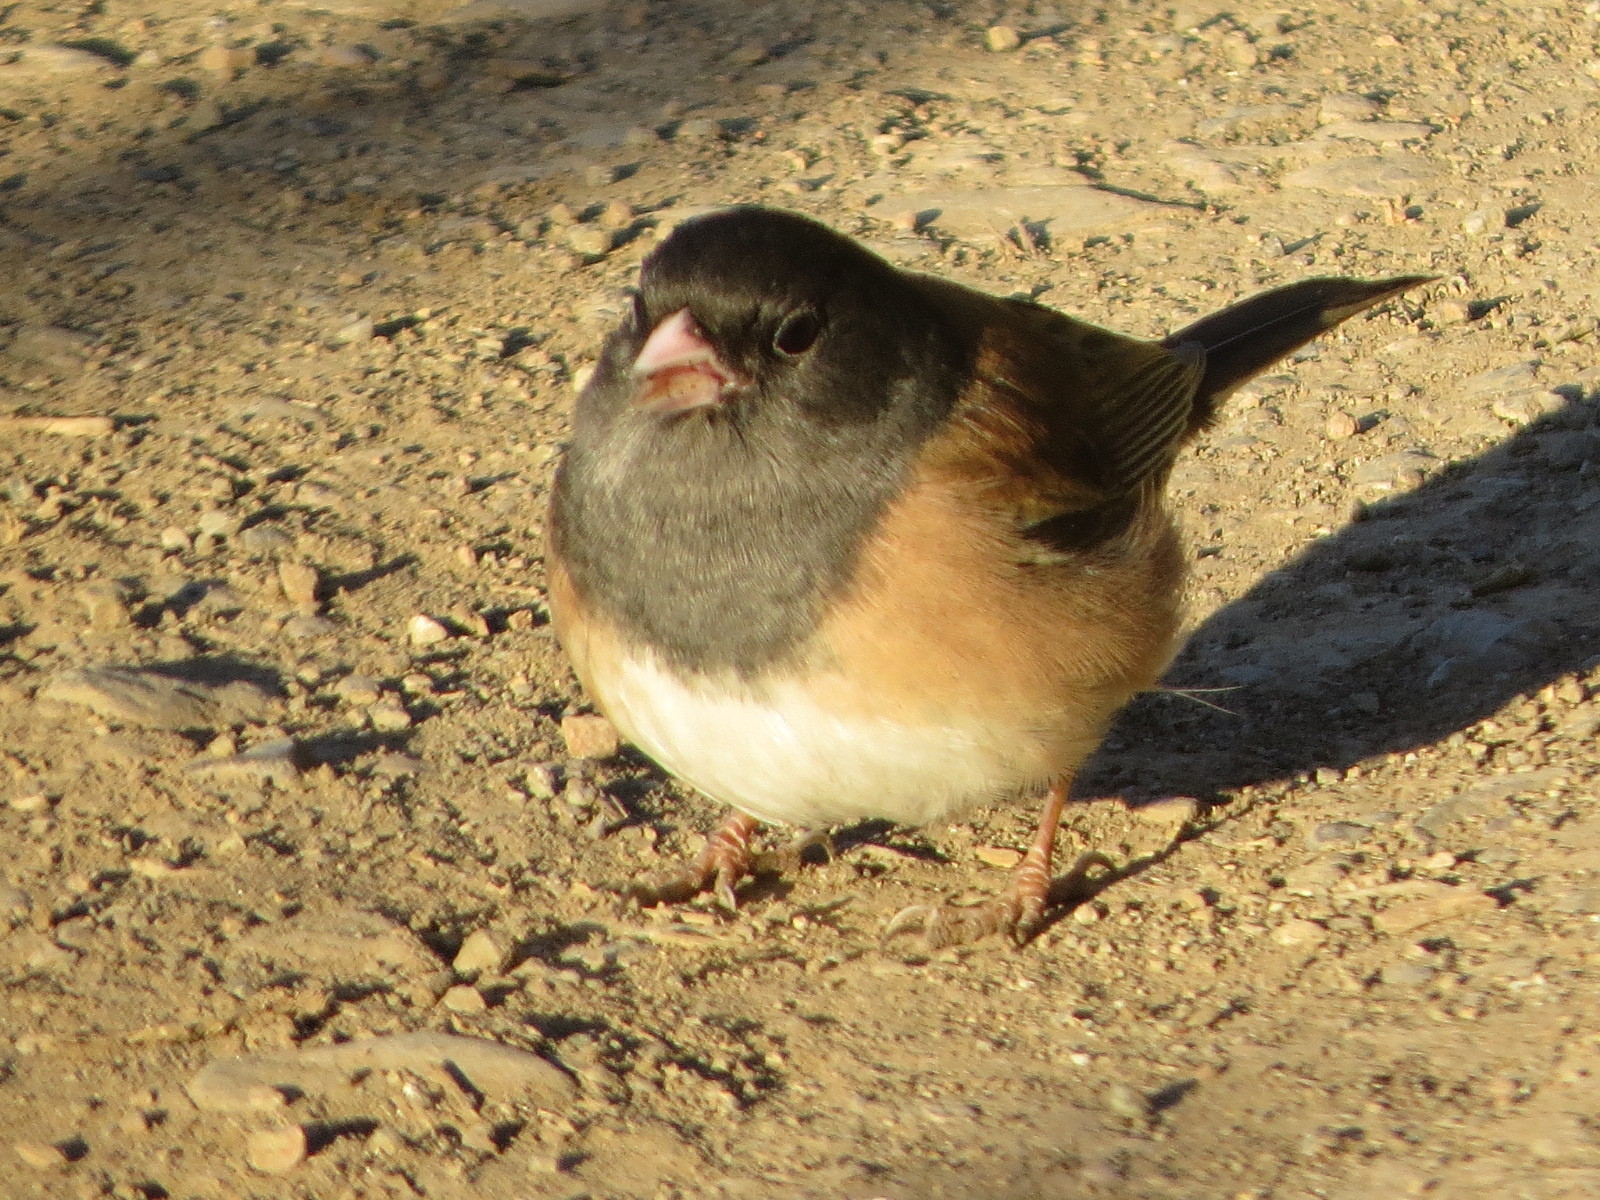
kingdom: Animalia
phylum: Chordata
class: Aves
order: Passeriformes
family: Passerellidae
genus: Junco
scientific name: Junco hyemalis
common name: Dark-eyed junco
